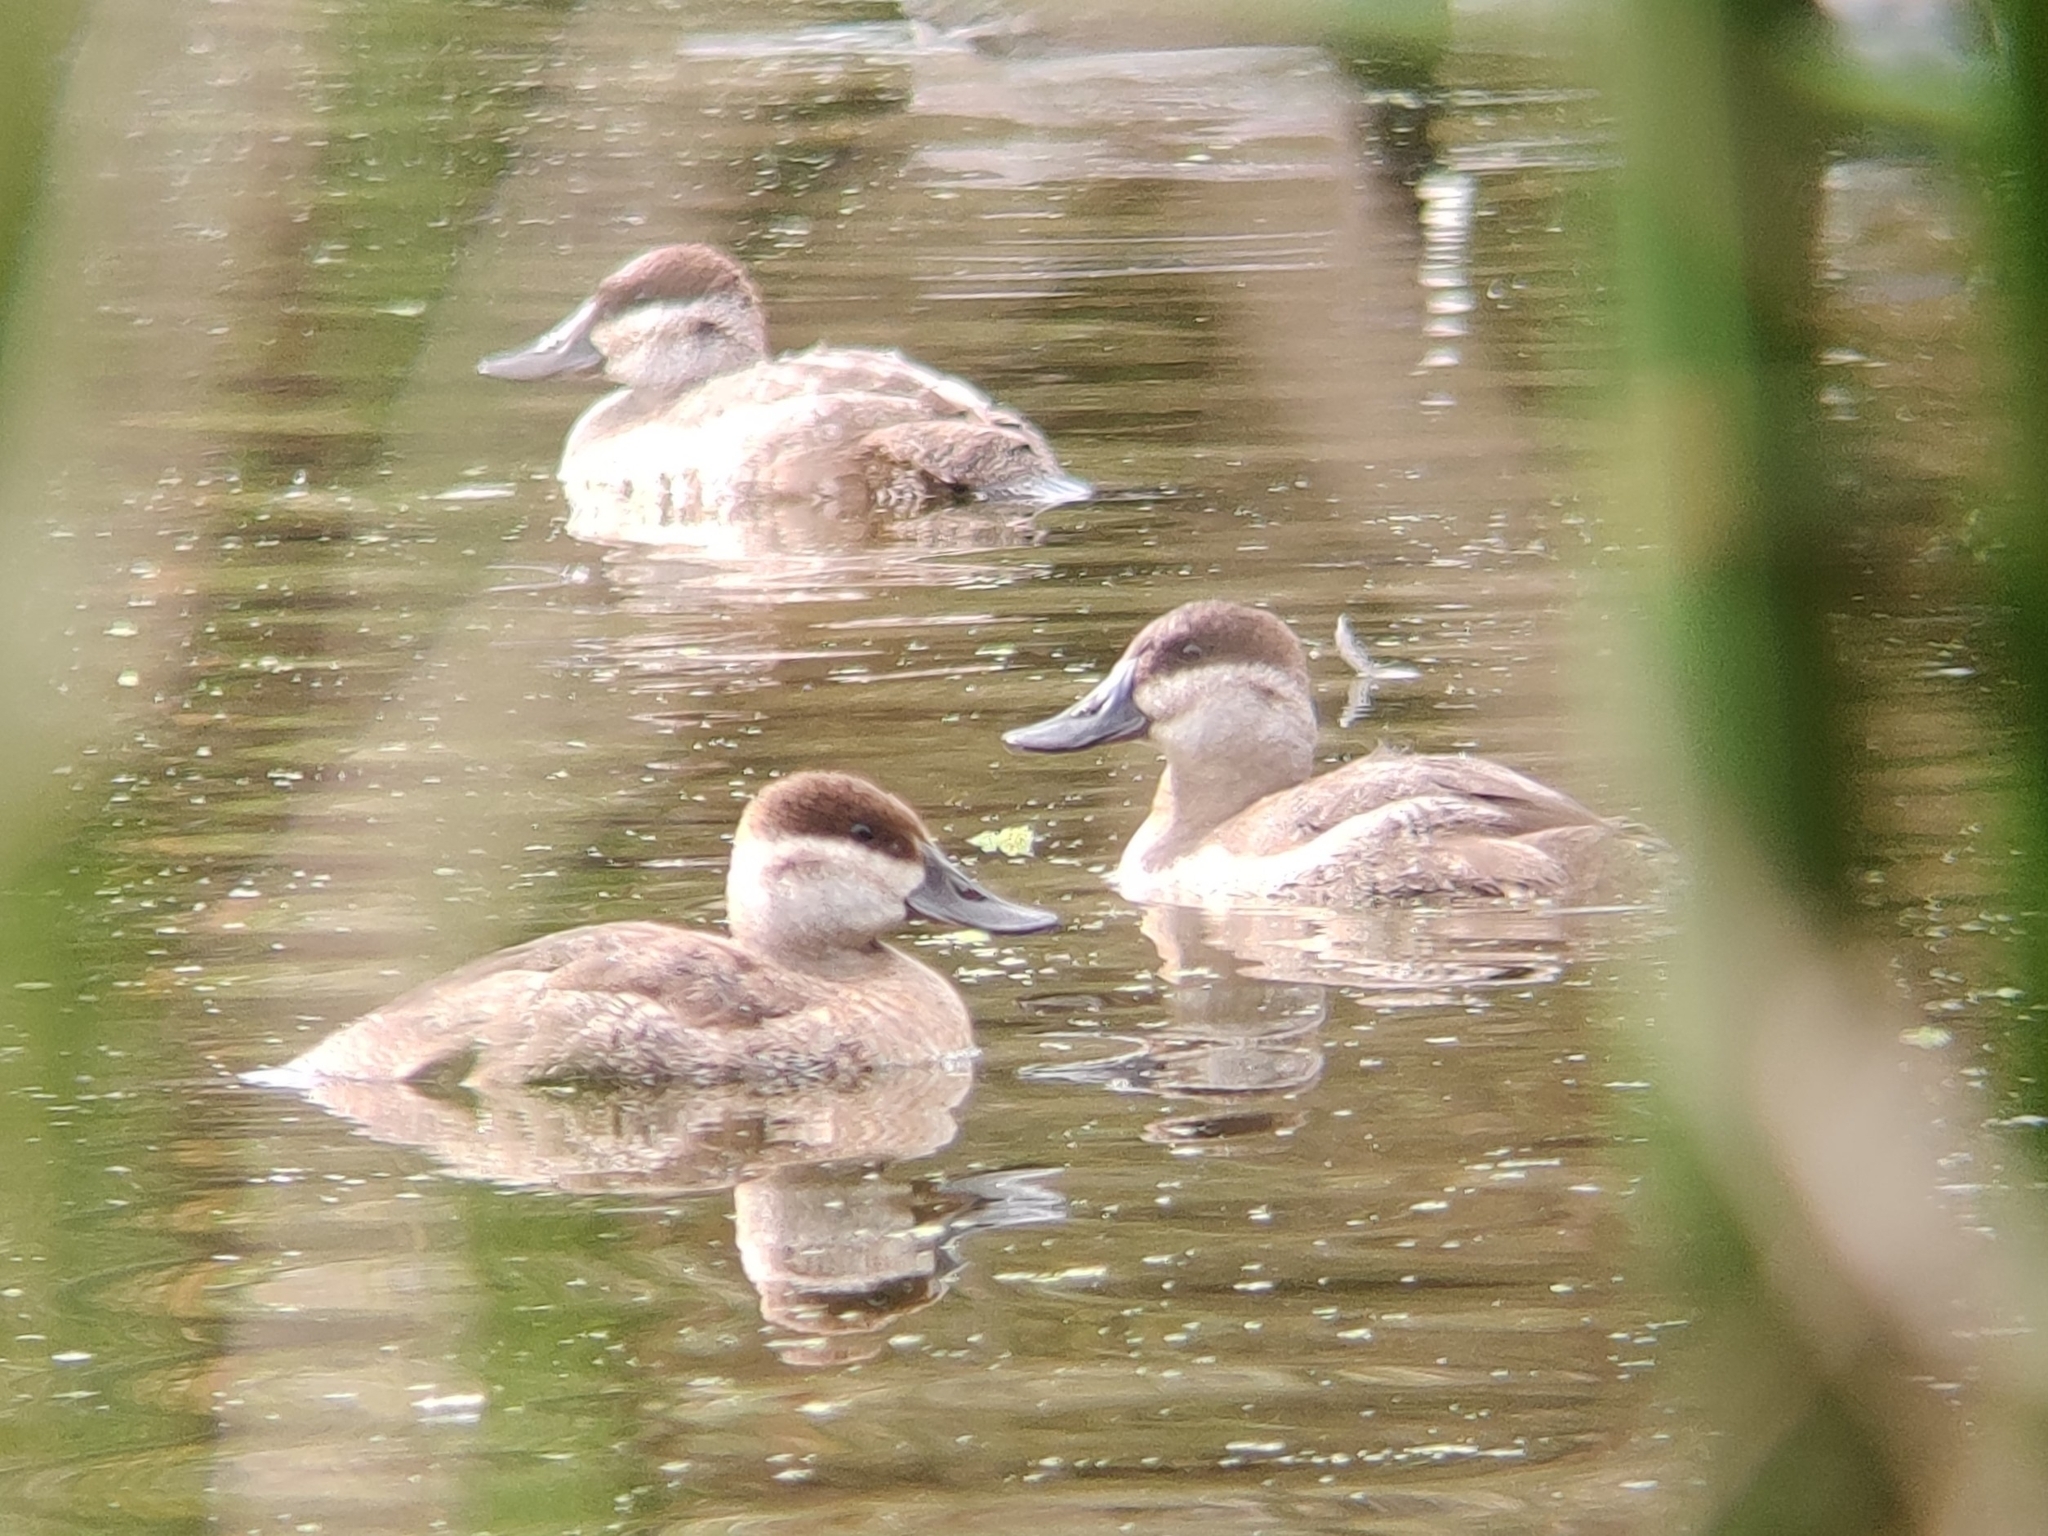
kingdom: Animalia
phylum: Chordata
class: Aves
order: Anseriformes
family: Anatidae
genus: Oxyura
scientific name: Oxyura jamaicensis
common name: Ruddy duck
